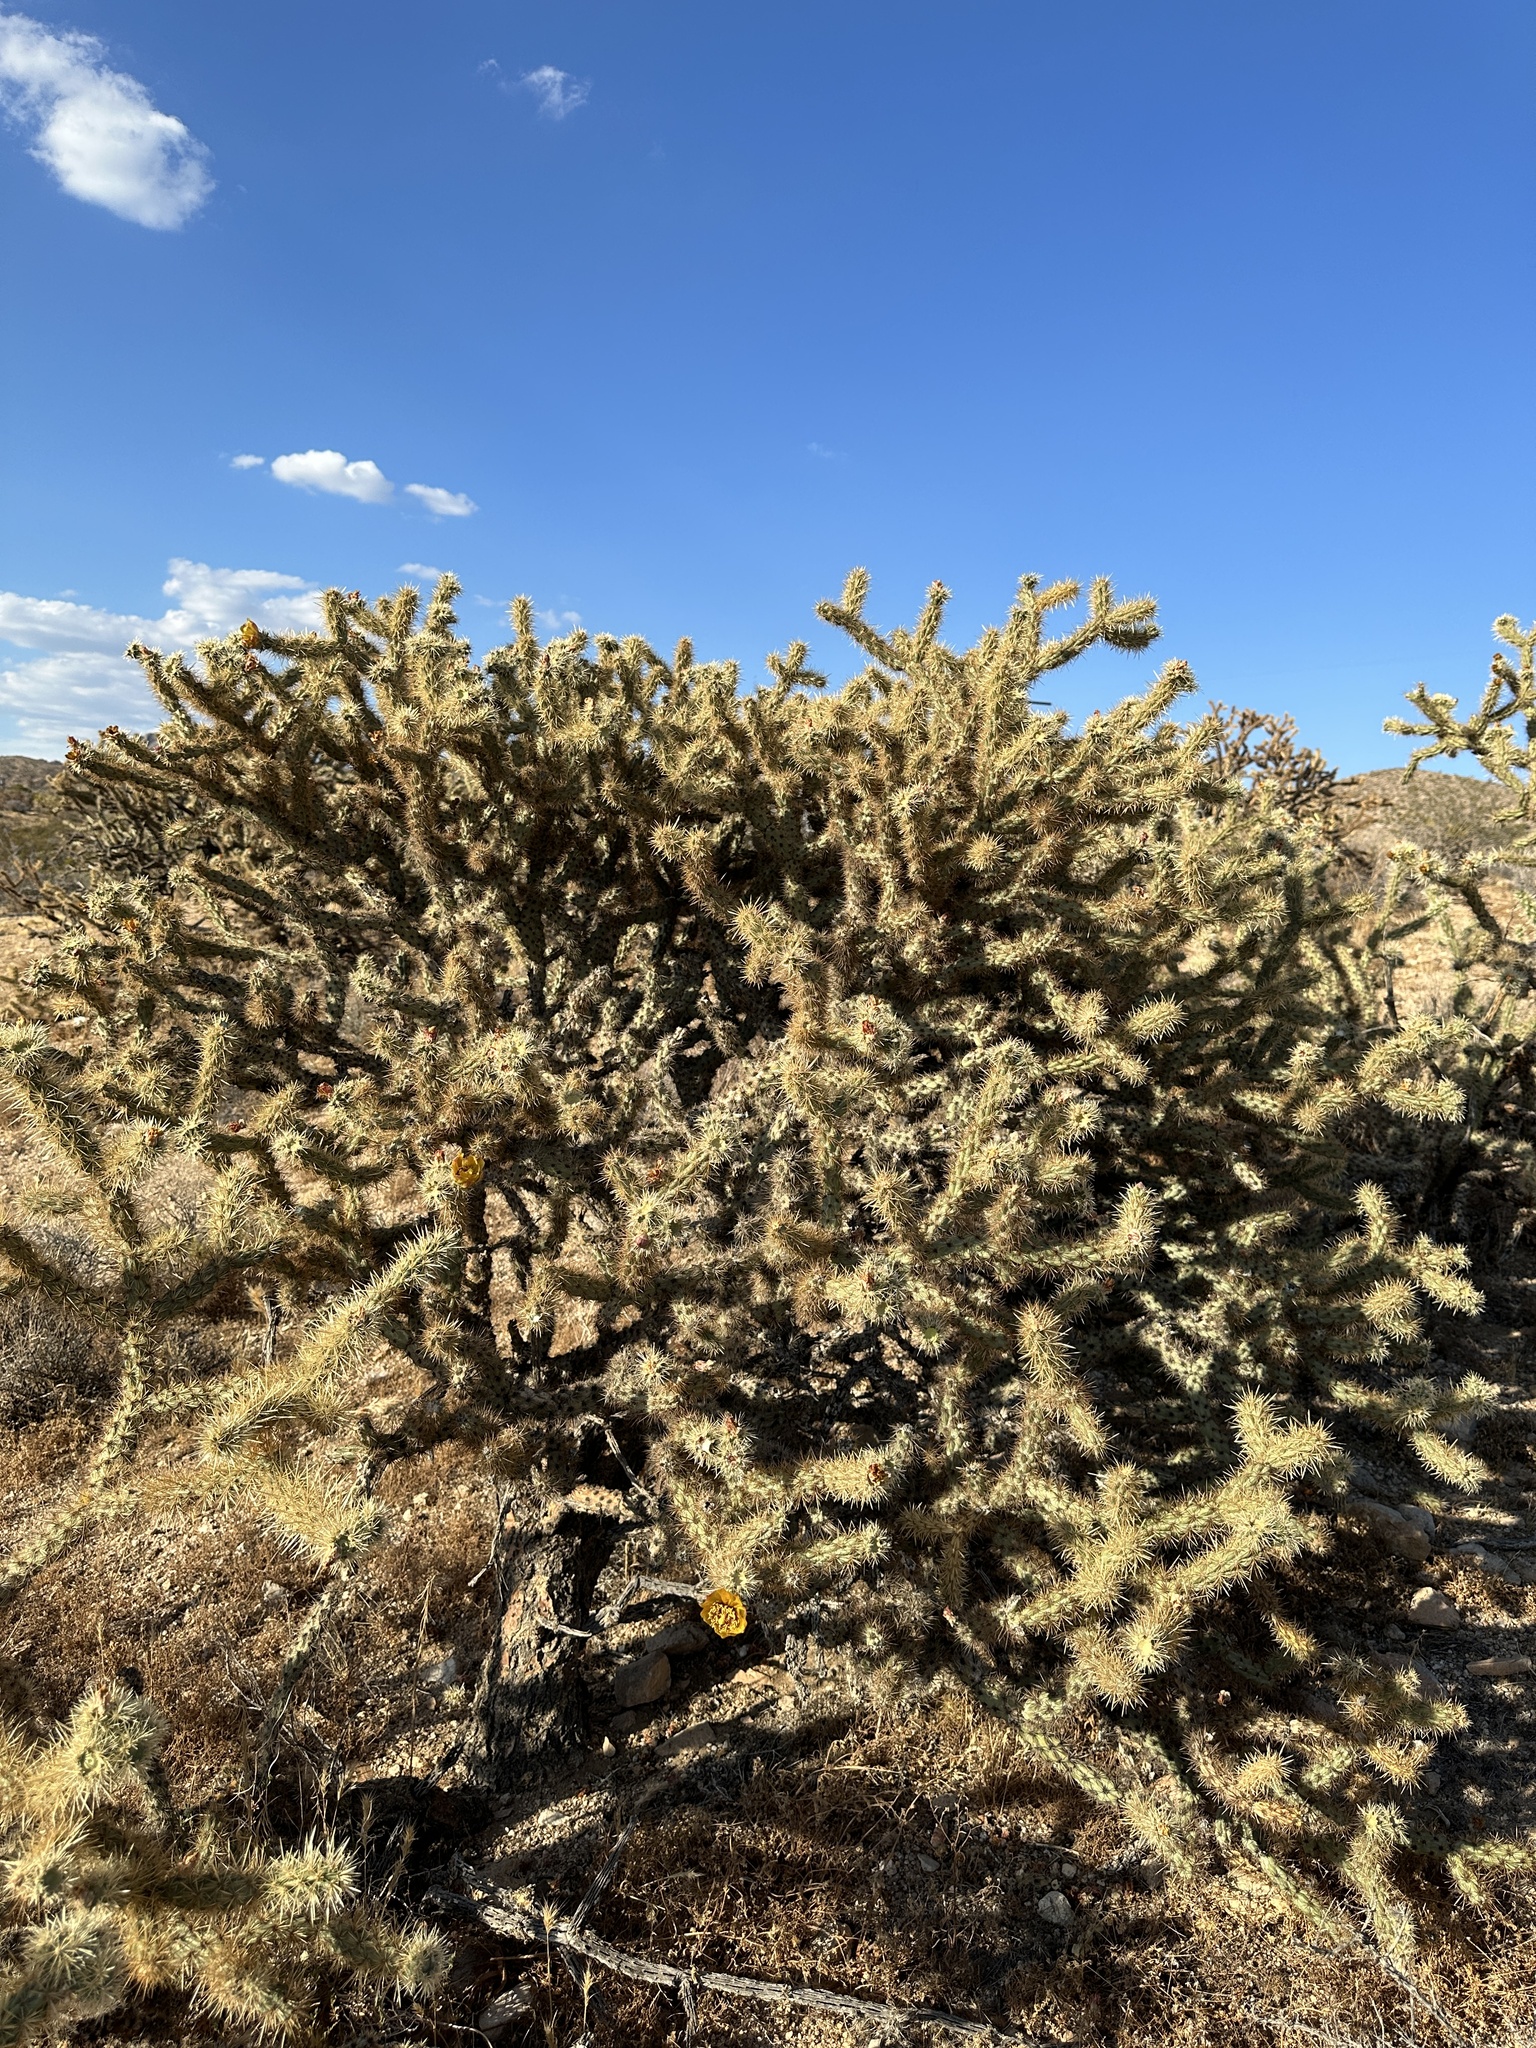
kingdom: Plantae
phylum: Tracheophyta
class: Magnoliopsida
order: Caryophyllales
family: Cactaceae
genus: Cylindropuntia
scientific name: Cylindropuntia acanthocarpa
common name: Buckhorn cholla
